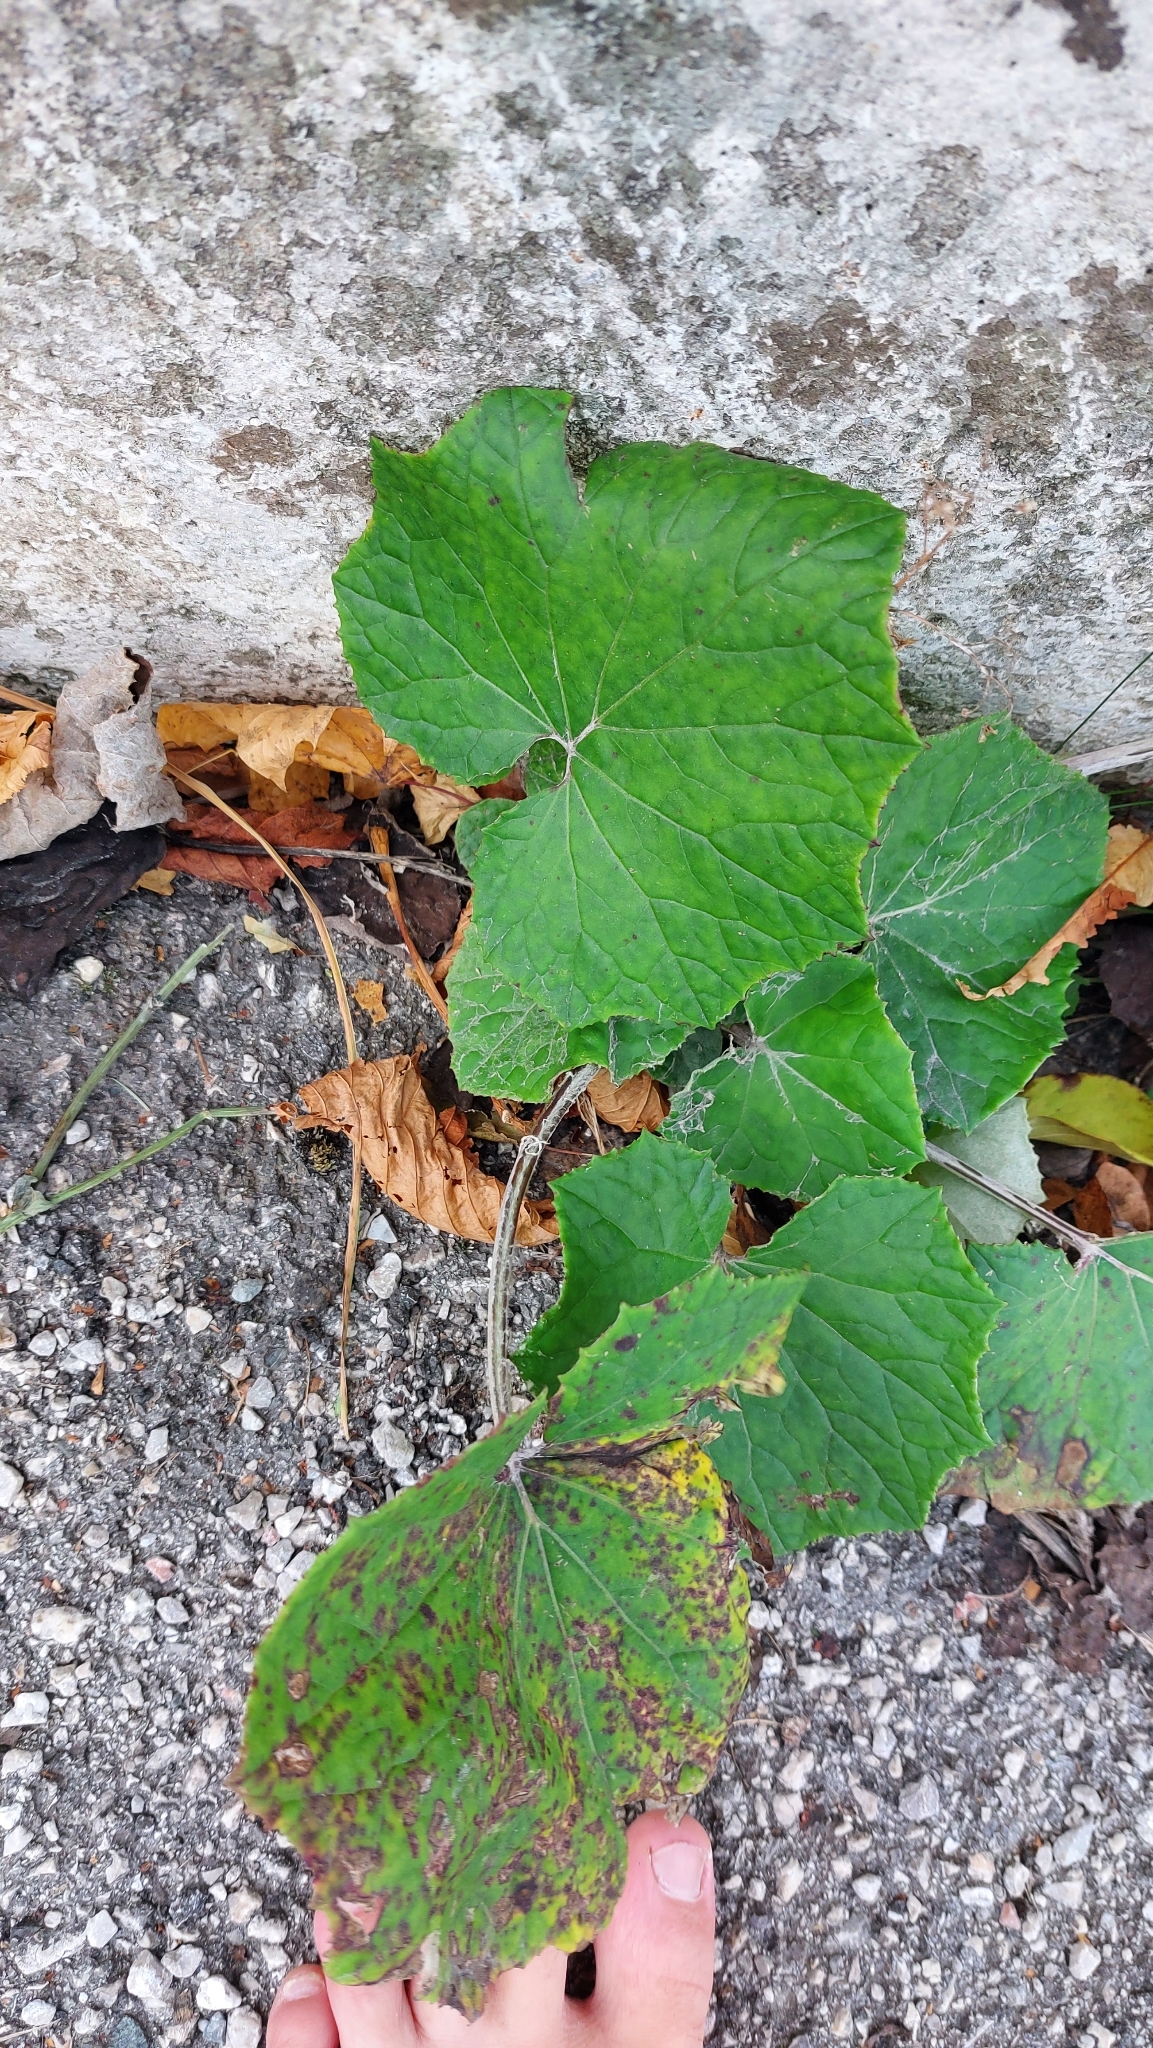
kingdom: Plantae
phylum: Tracheophyta
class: Magnoliopsida
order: Asterales
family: Asteraceae
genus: Tussilago
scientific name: Tussilago farfara
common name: Coltsfoot
